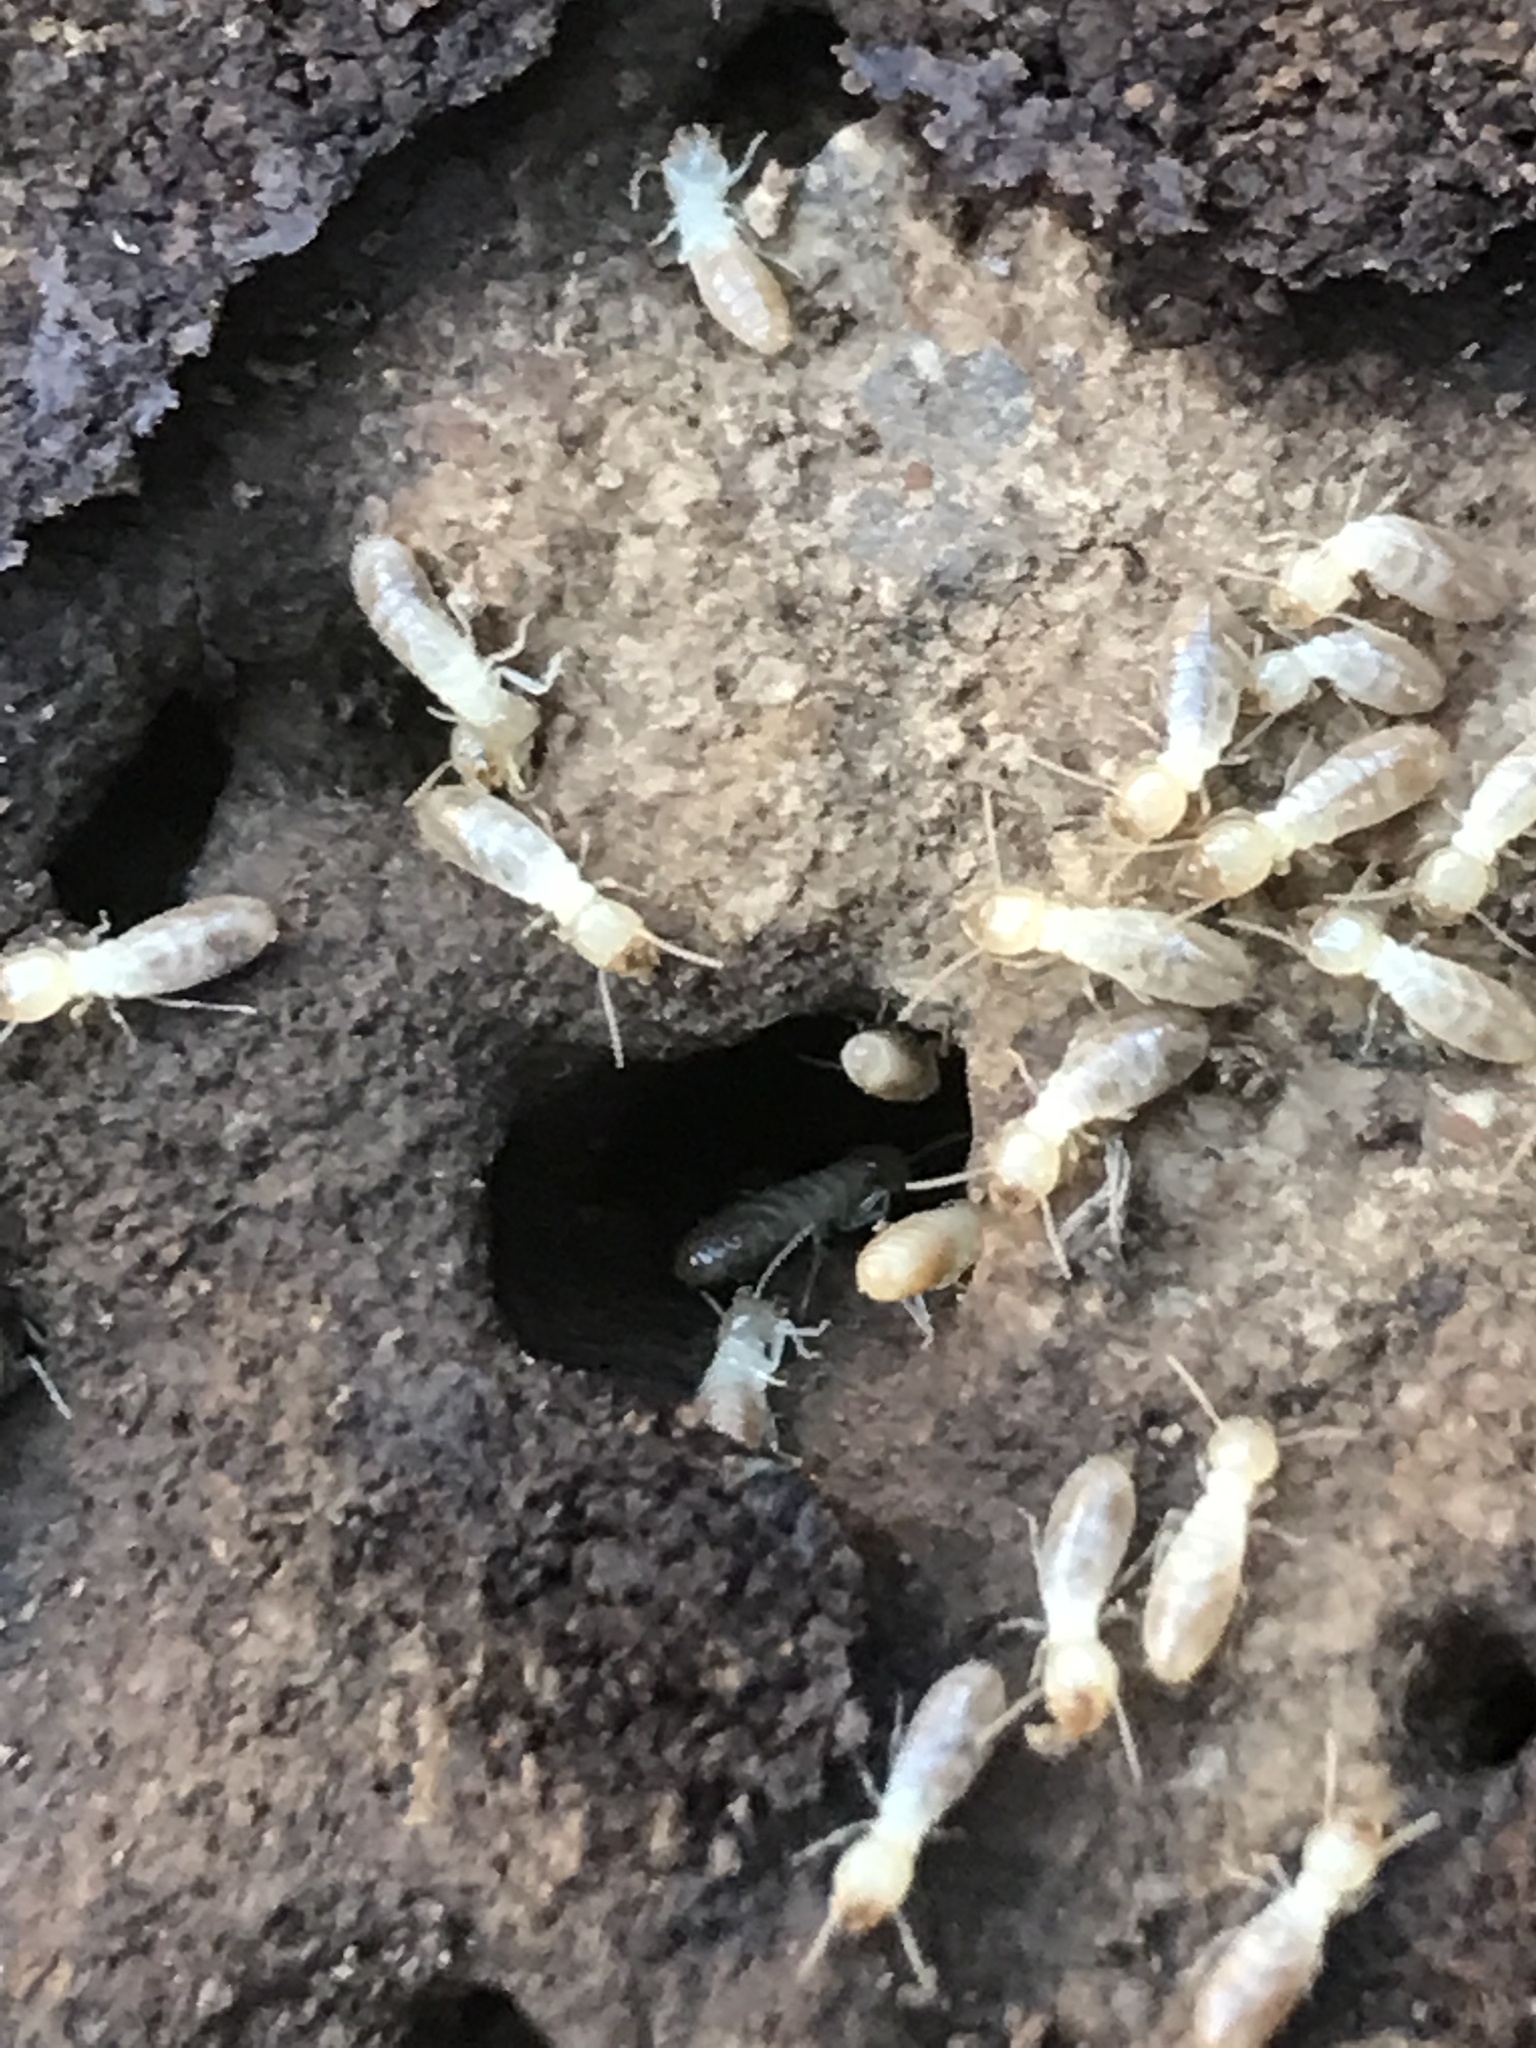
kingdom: Animalia
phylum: Arthropoda
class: Insecta
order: Blattodea
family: Rhinotermitidae
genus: Reticulitermes
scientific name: Reticulitermes hesperus
